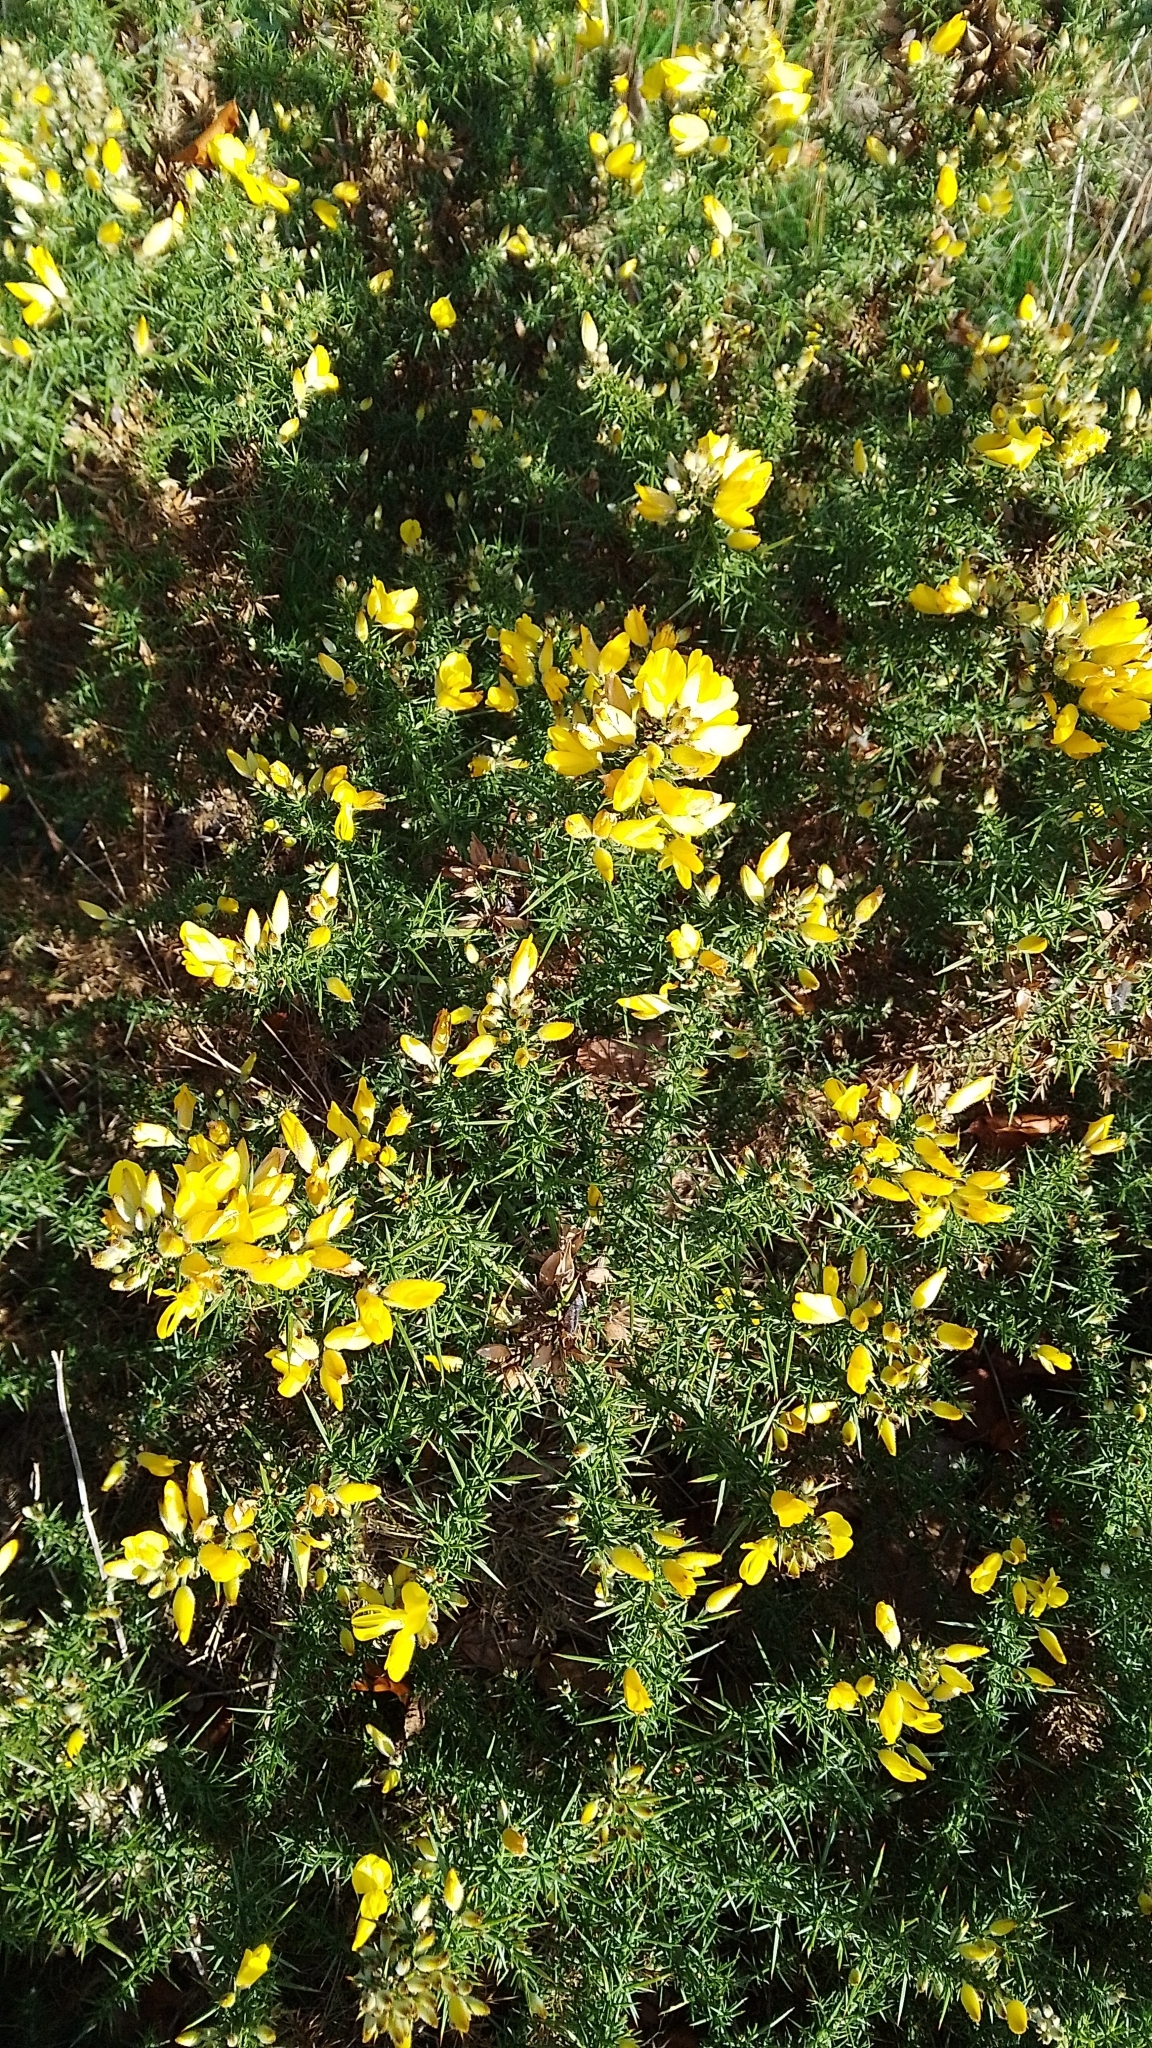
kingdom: Plantae
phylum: Tracheophyta
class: Magnoliopsida
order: Fabales
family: Fabaceae
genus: Ulex
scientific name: Ulex europaeus
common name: Common gorse
